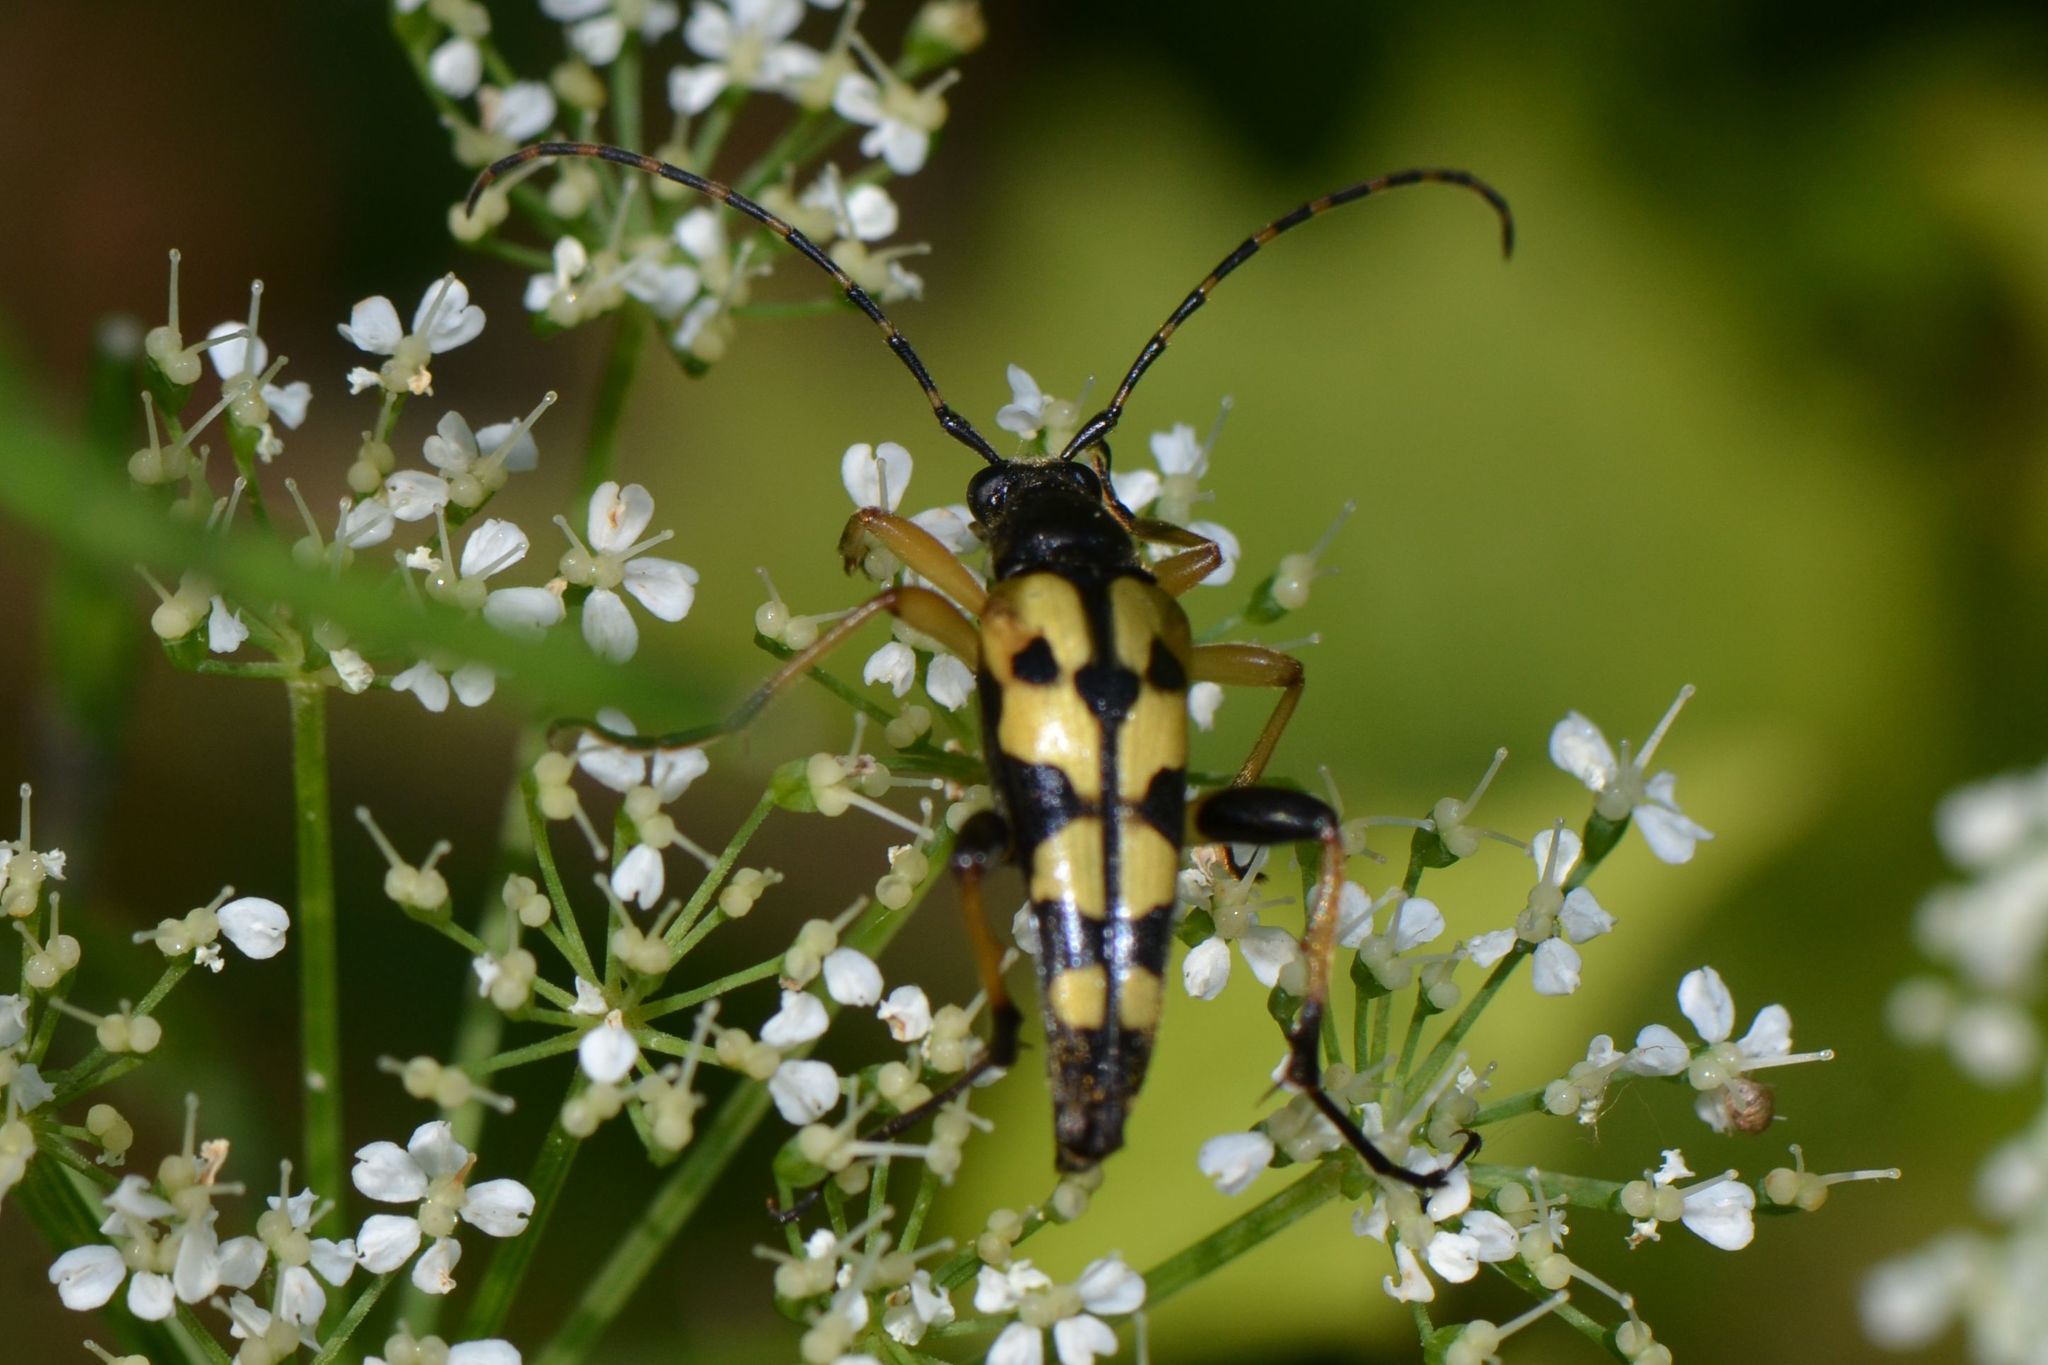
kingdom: Animalia
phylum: Arthropoda
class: Insecta
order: Coleoptera
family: Cerambycidae
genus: Rutpela
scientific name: Rutpela maculata
